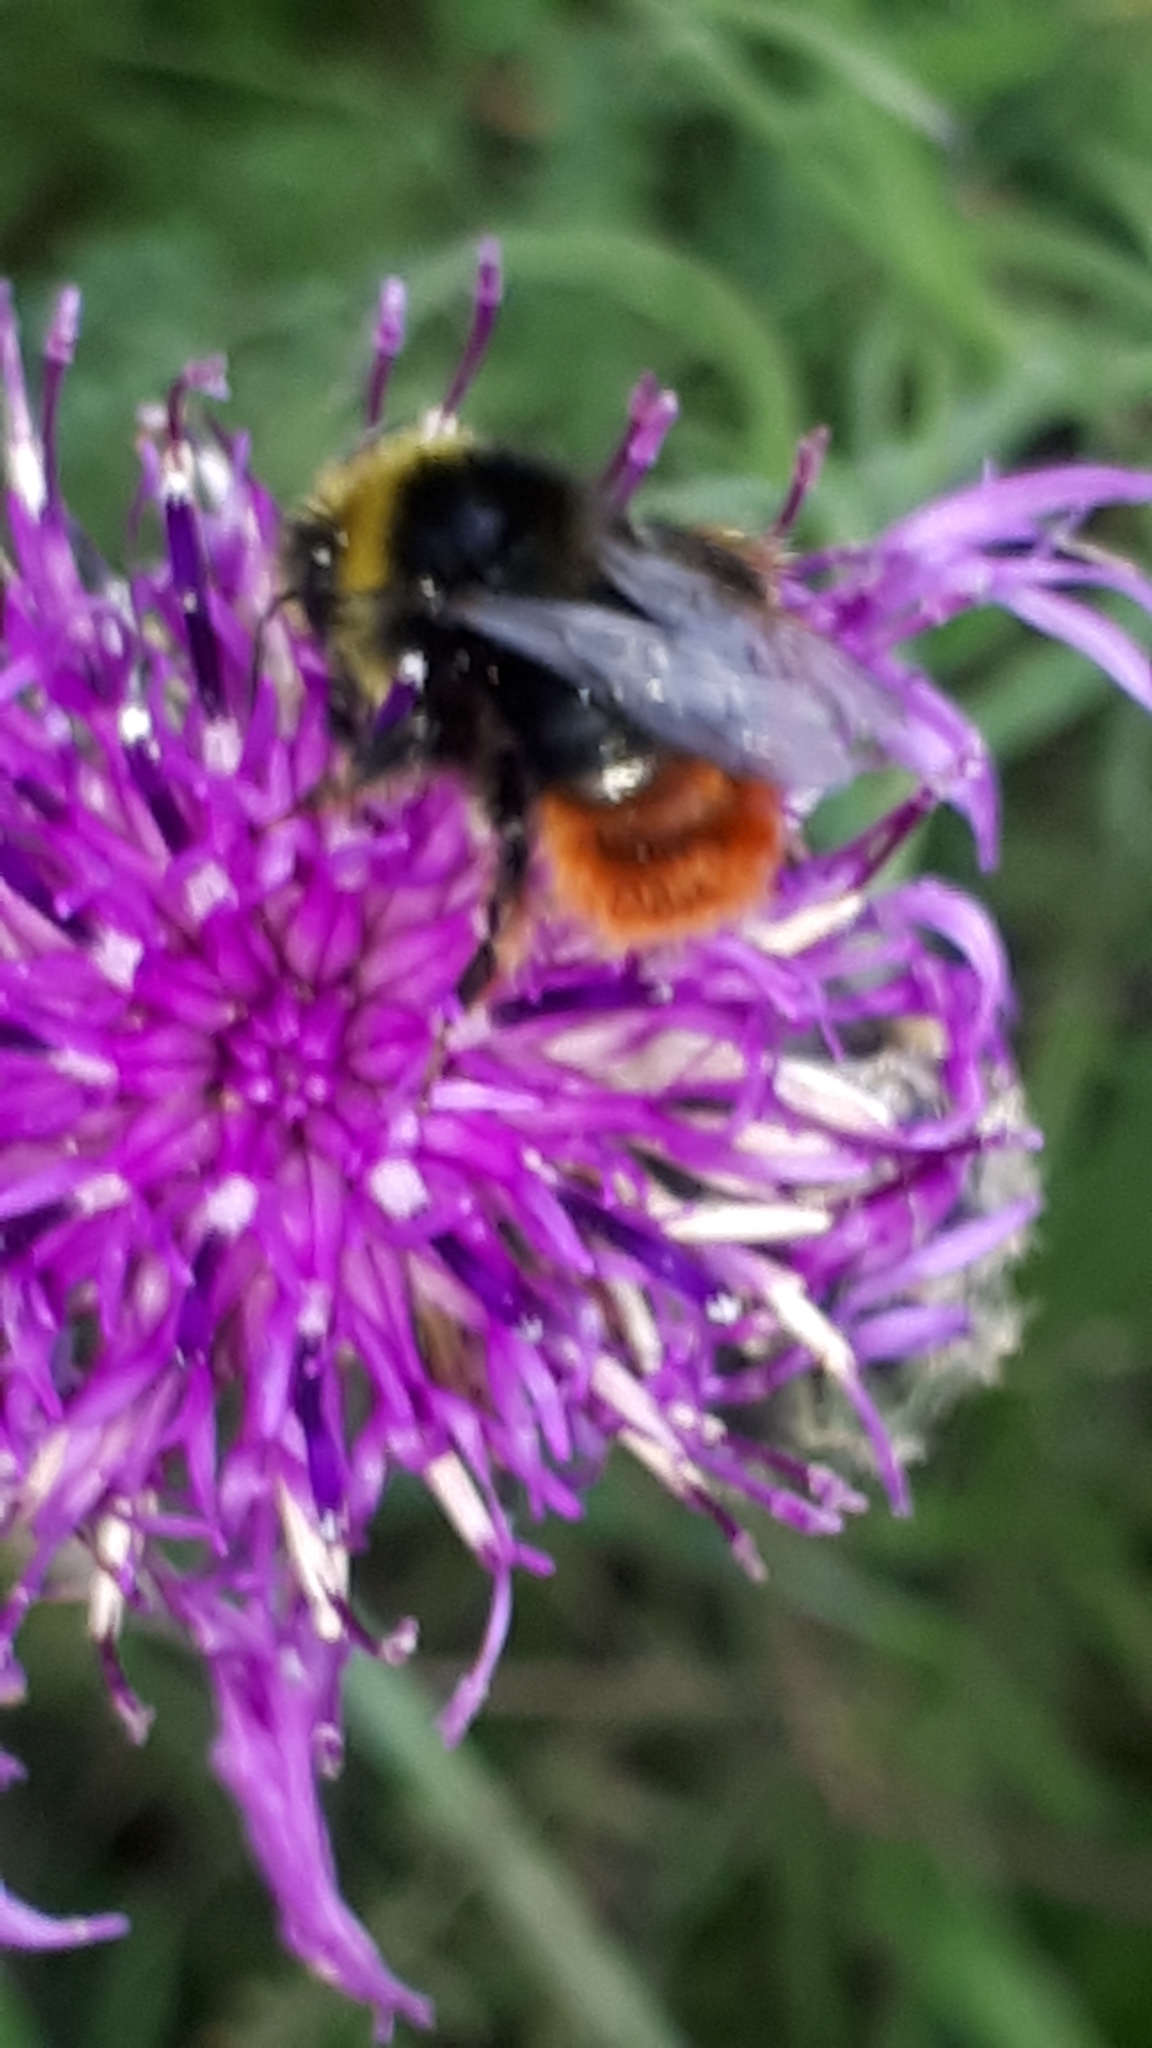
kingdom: Animalia
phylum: Arthropoda
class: Insecta
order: Hymenoptera
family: Apidae
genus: Bombus
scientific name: Bombus lapidarius
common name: Large red-tailed humble-bee
